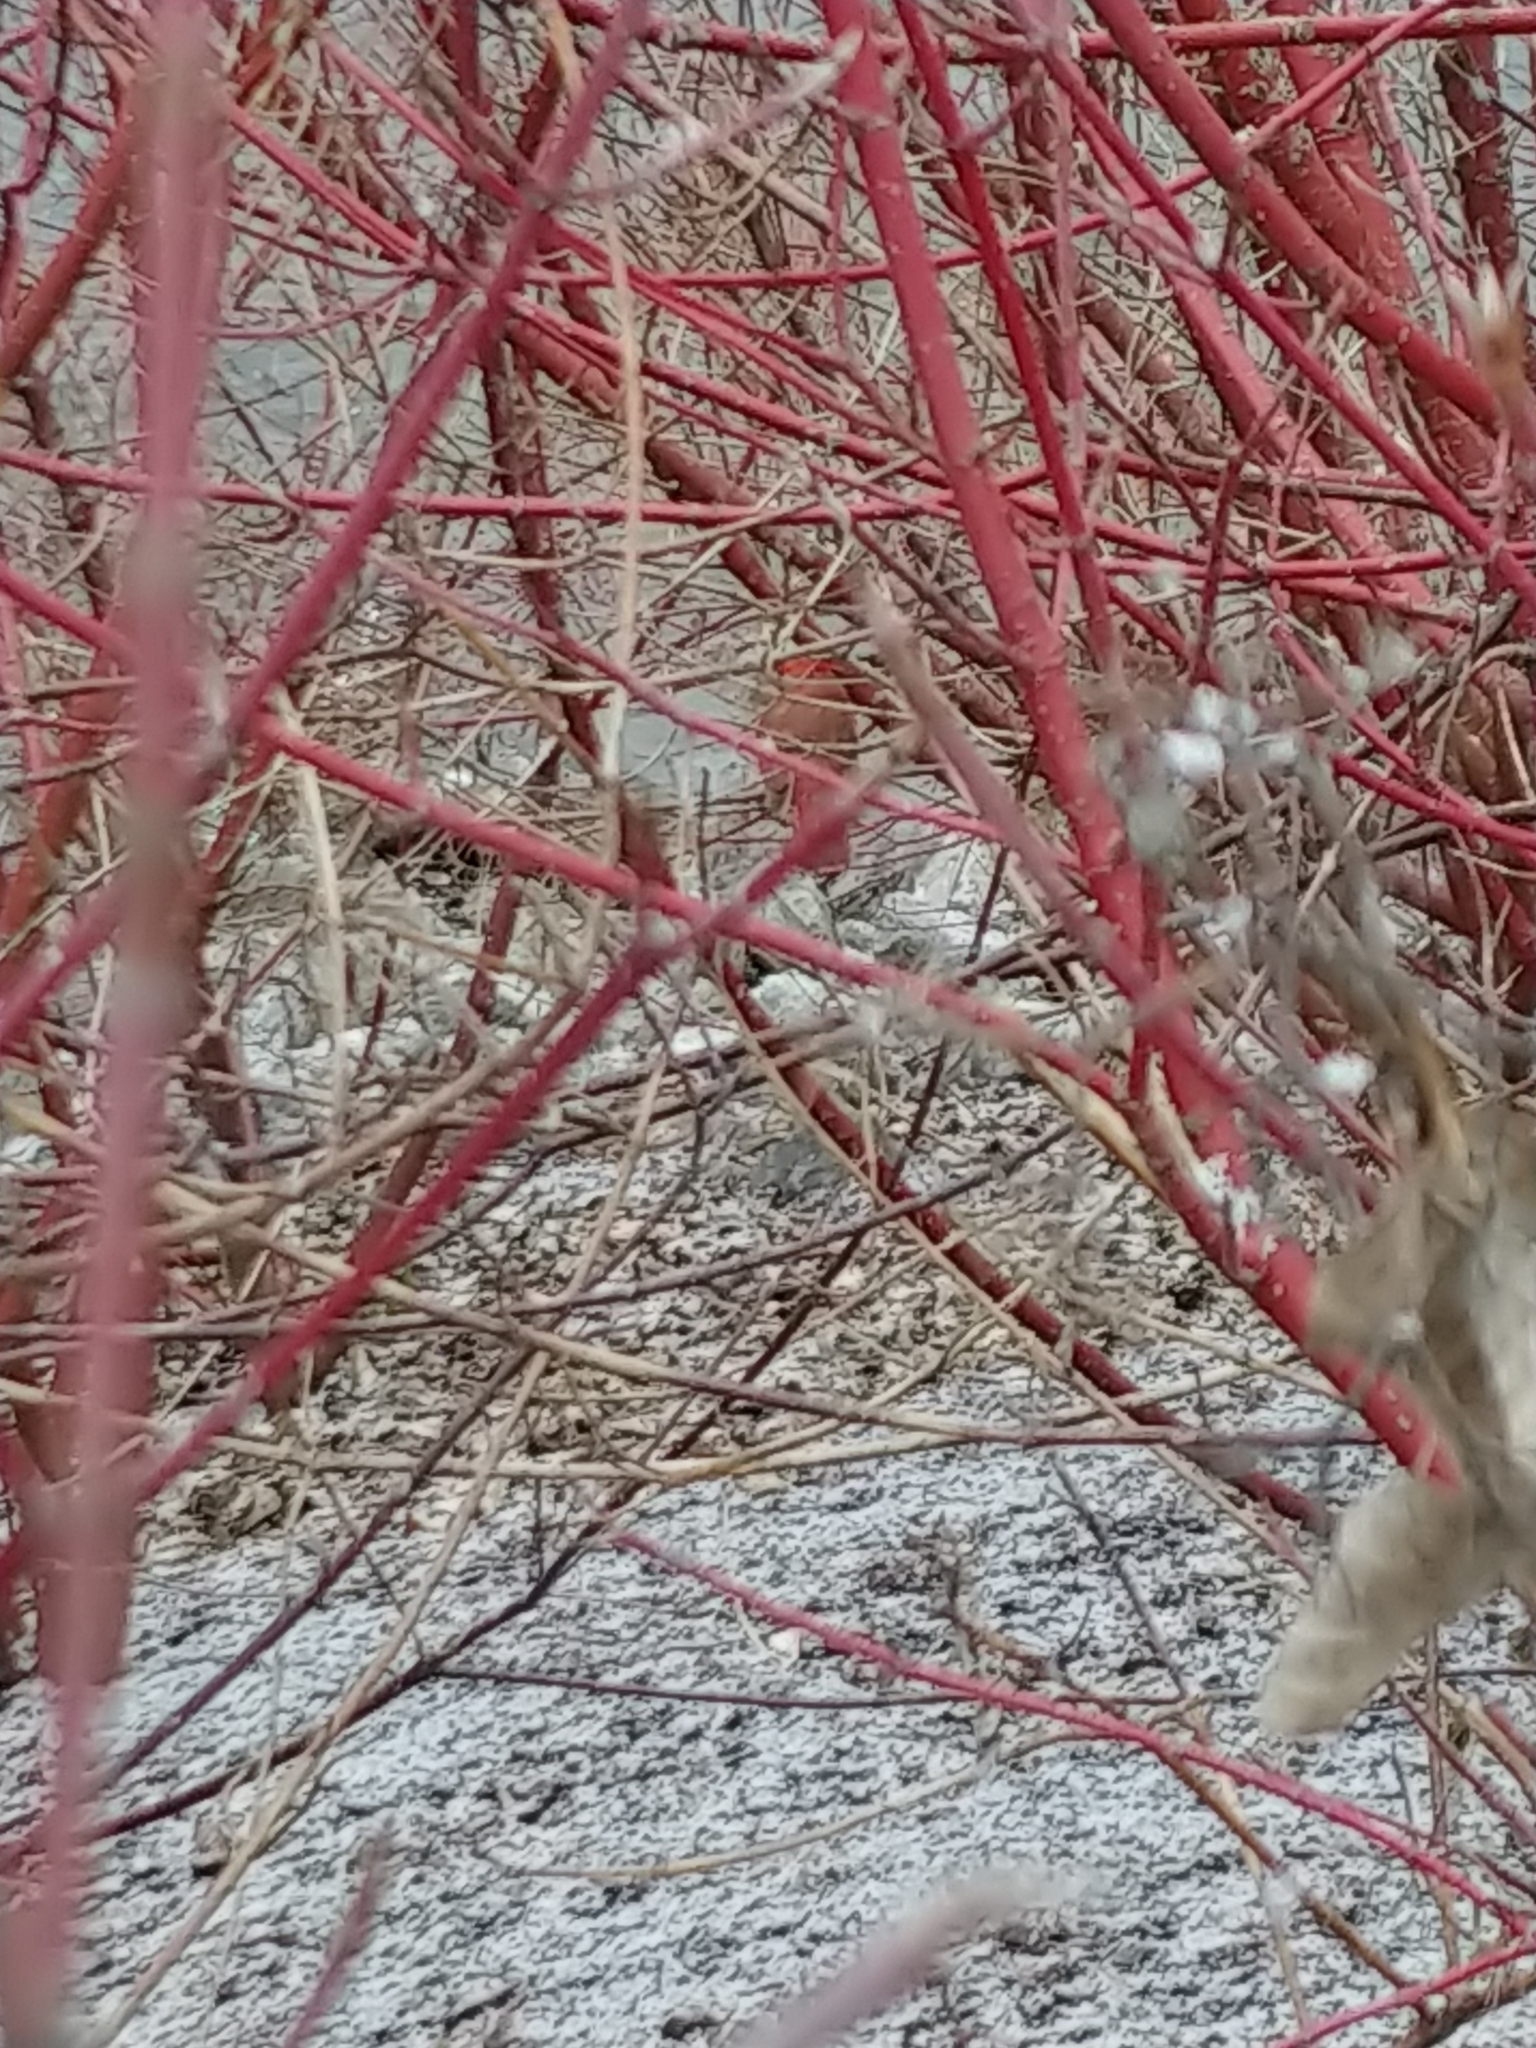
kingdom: Animalia
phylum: Chordata
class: Aves
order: Passeriformes
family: Cardinalidae
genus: Cardinalis
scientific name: Cardinalis cardinalis
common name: Northern cardinal
